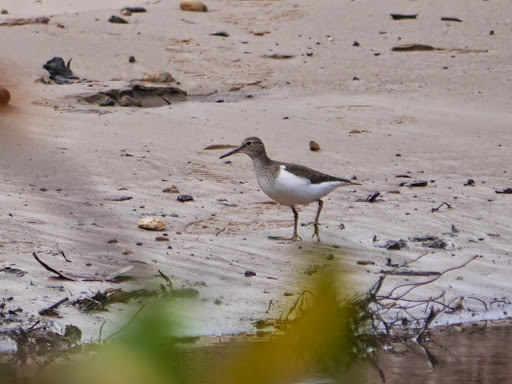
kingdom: Animalia
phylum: Chordata
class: Aves
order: Charadriiformes
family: Scolopacidae
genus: Actitis
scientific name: Actitis hypoleucos
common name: Common sandpiper
